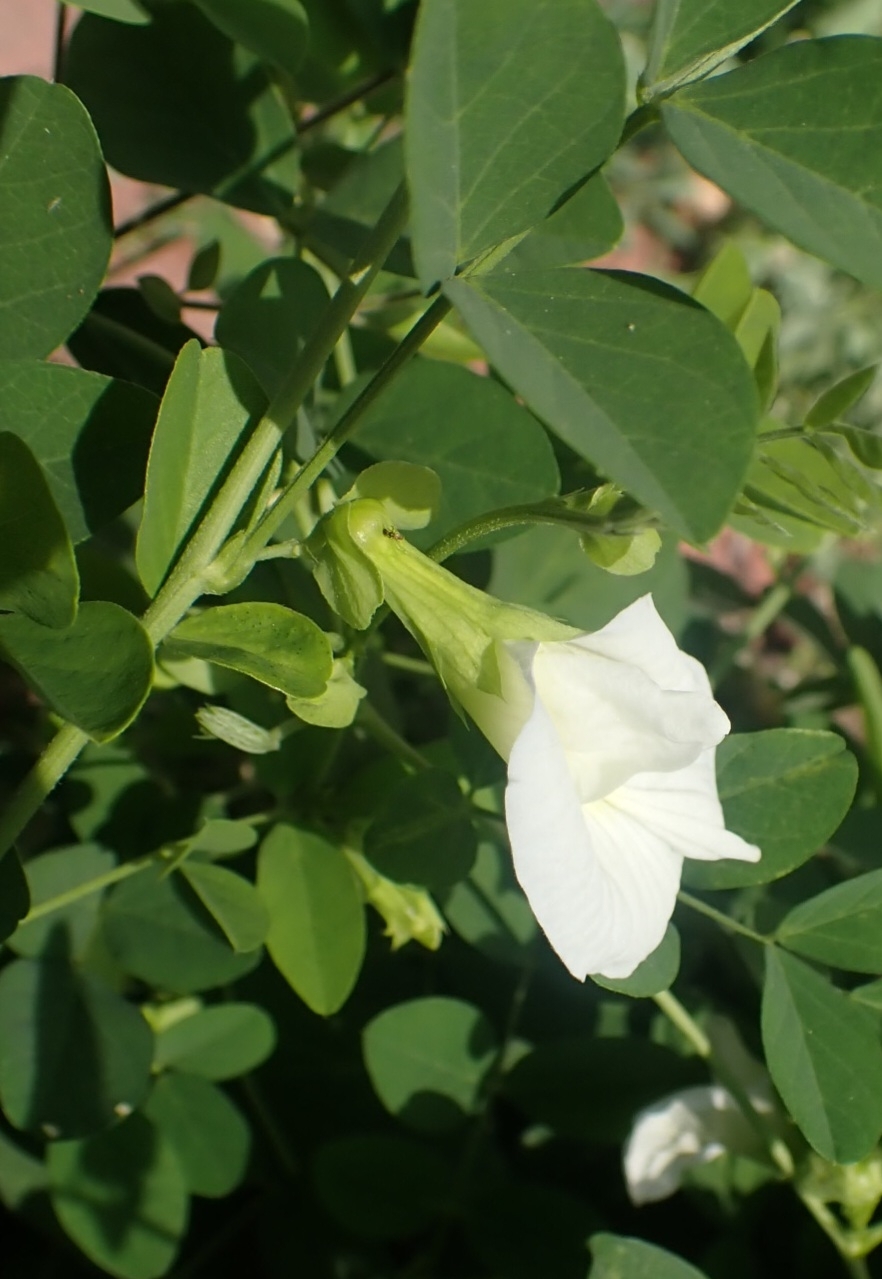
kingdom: Plantae
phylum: Tracheophyta
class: Magnoliopsida
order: Fabales
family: Fabaceae
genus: Clitoria
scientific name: Clitoria ternatea
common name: Asian pigeonwings
